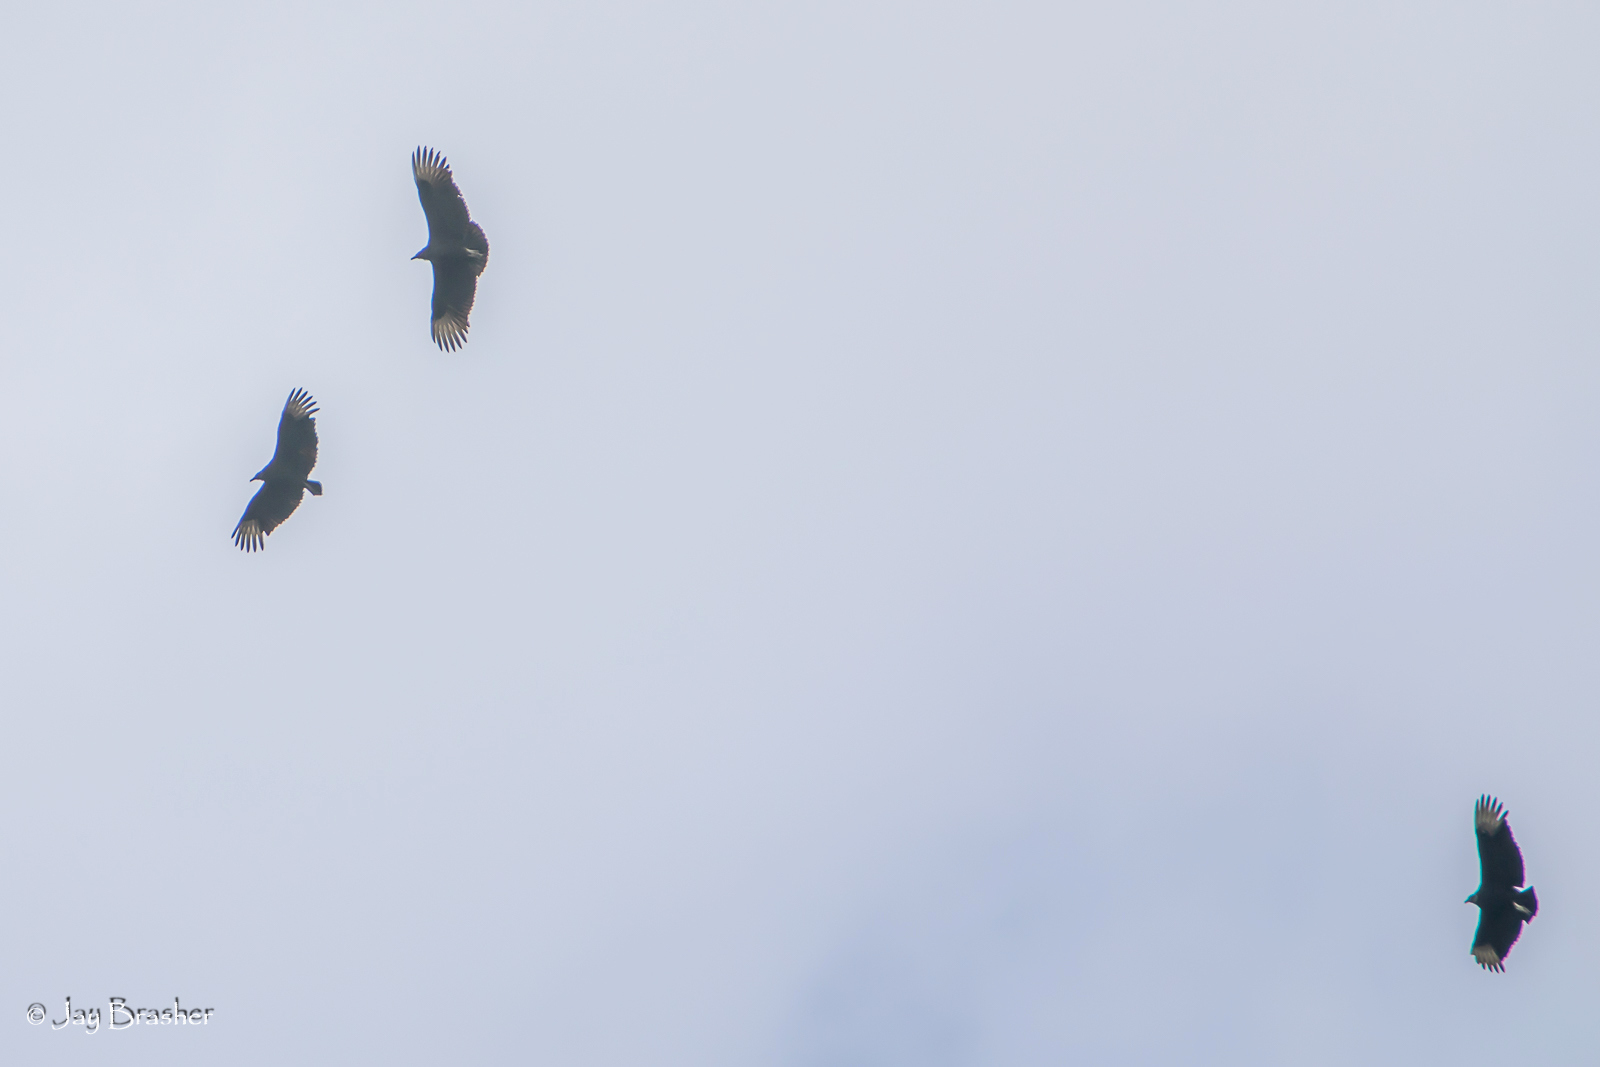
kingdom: Animalia
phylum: Chordata
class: Aves
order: Accipitriformes
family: Cathartidae
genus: Coragyps
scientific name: Coragyps atratus
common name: Black vulture
